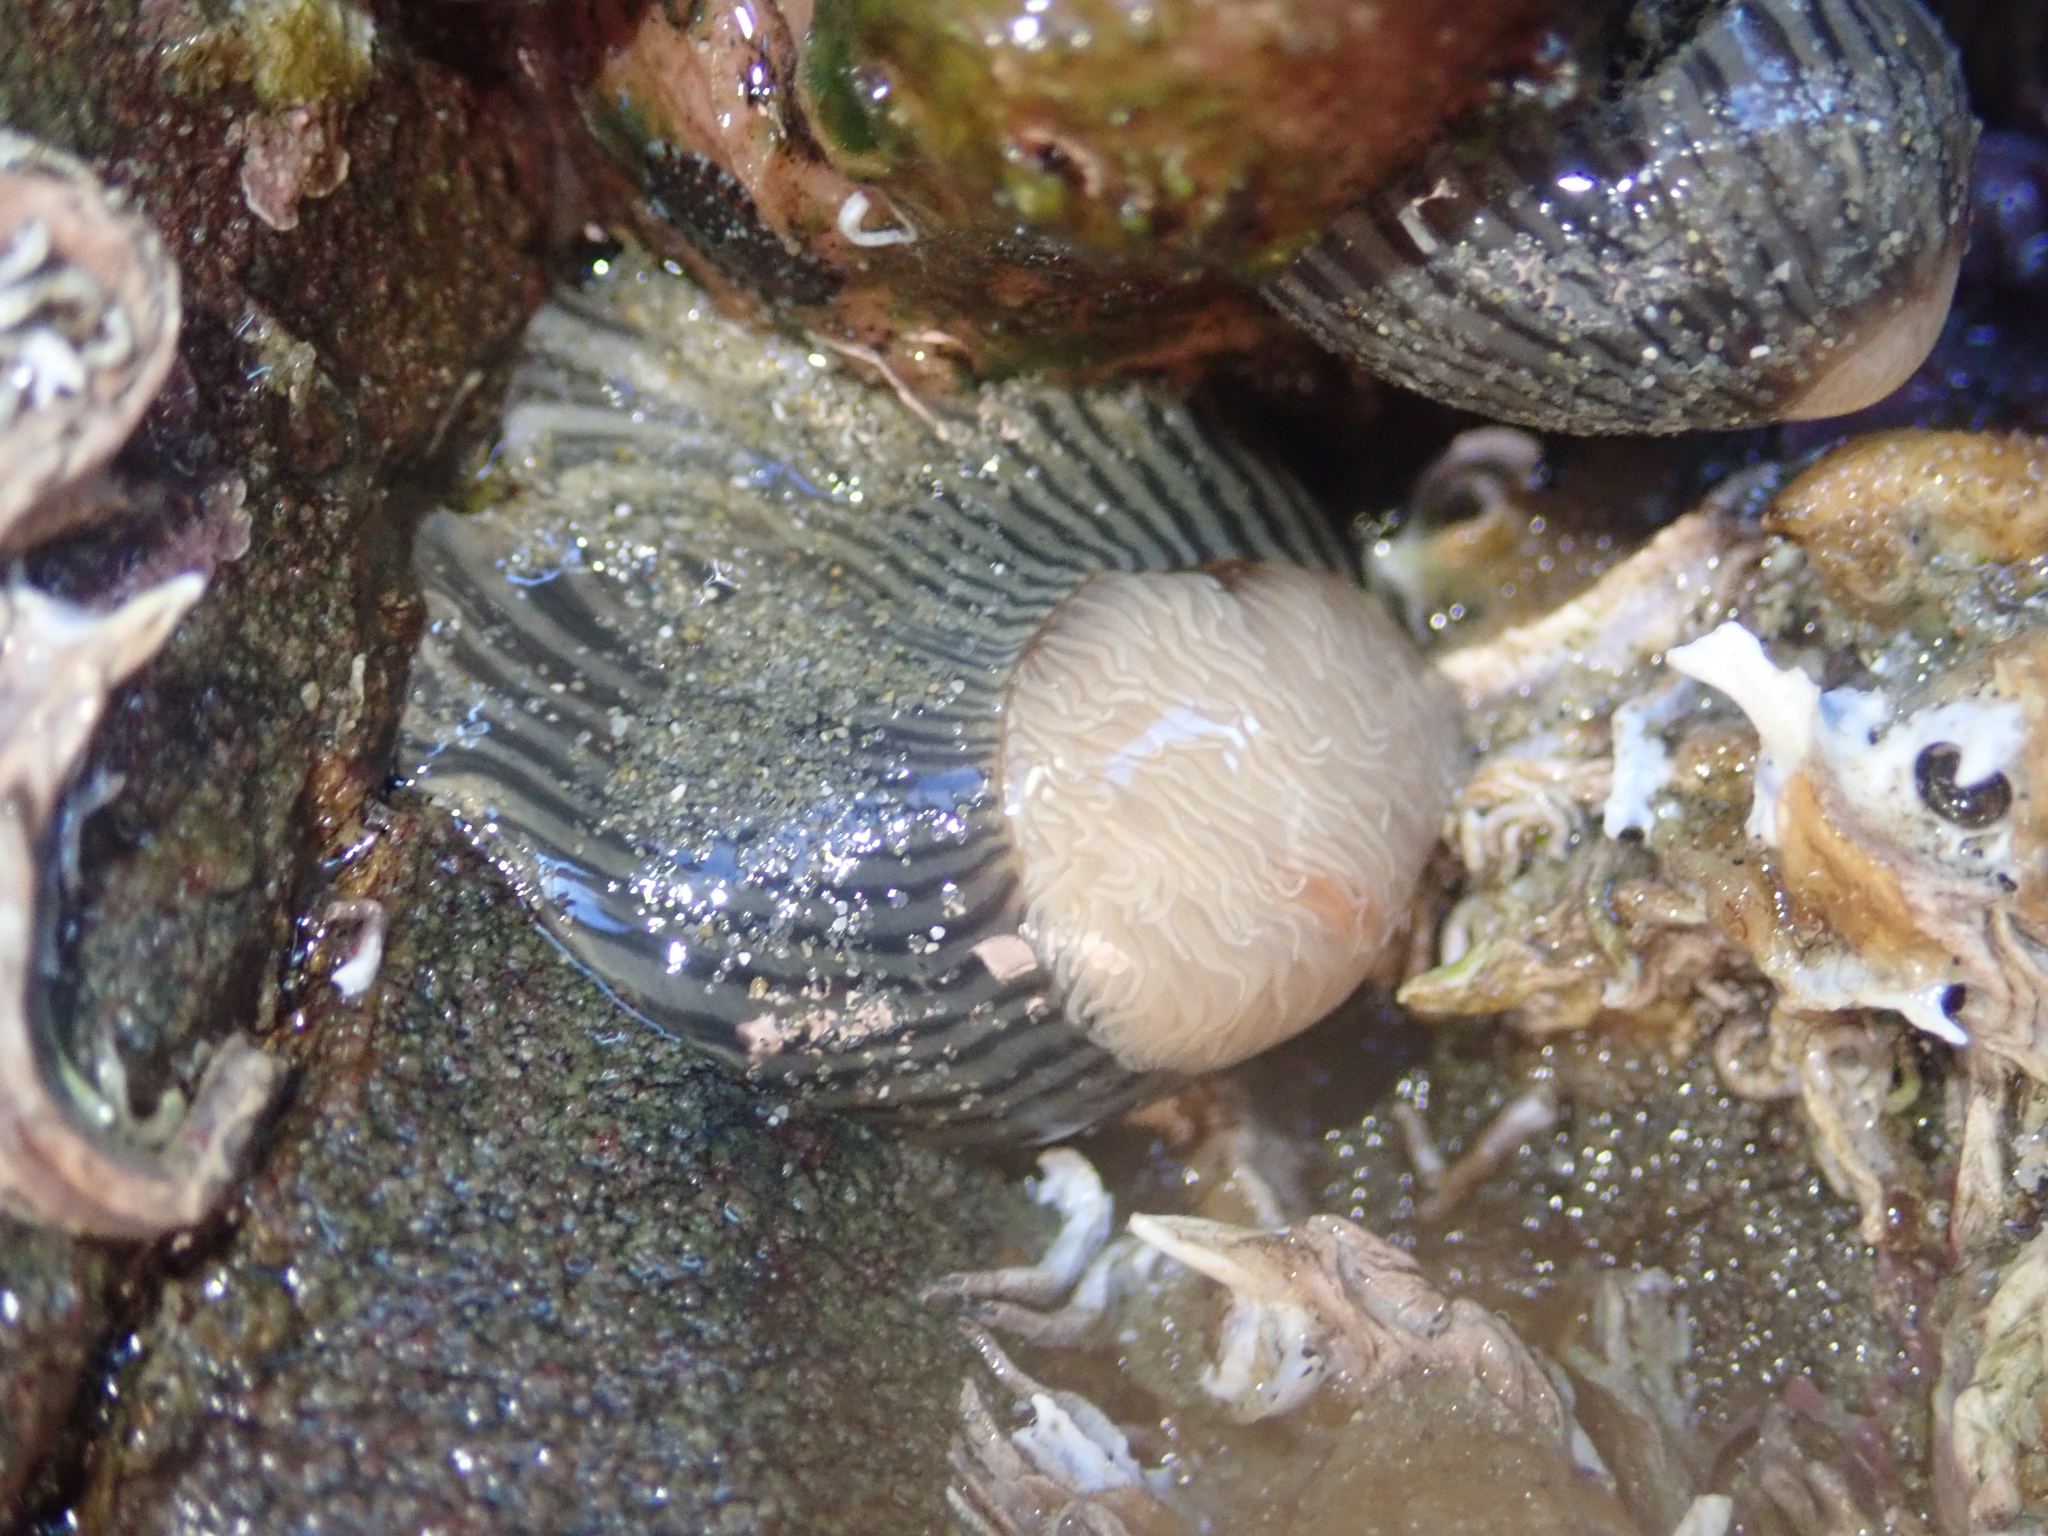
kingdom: Animalia
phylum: Cnidaria
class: Anthozoa
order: Actiniaria
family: Diadumenidae
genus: Diadumene
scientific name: Diadumene neozelanica
